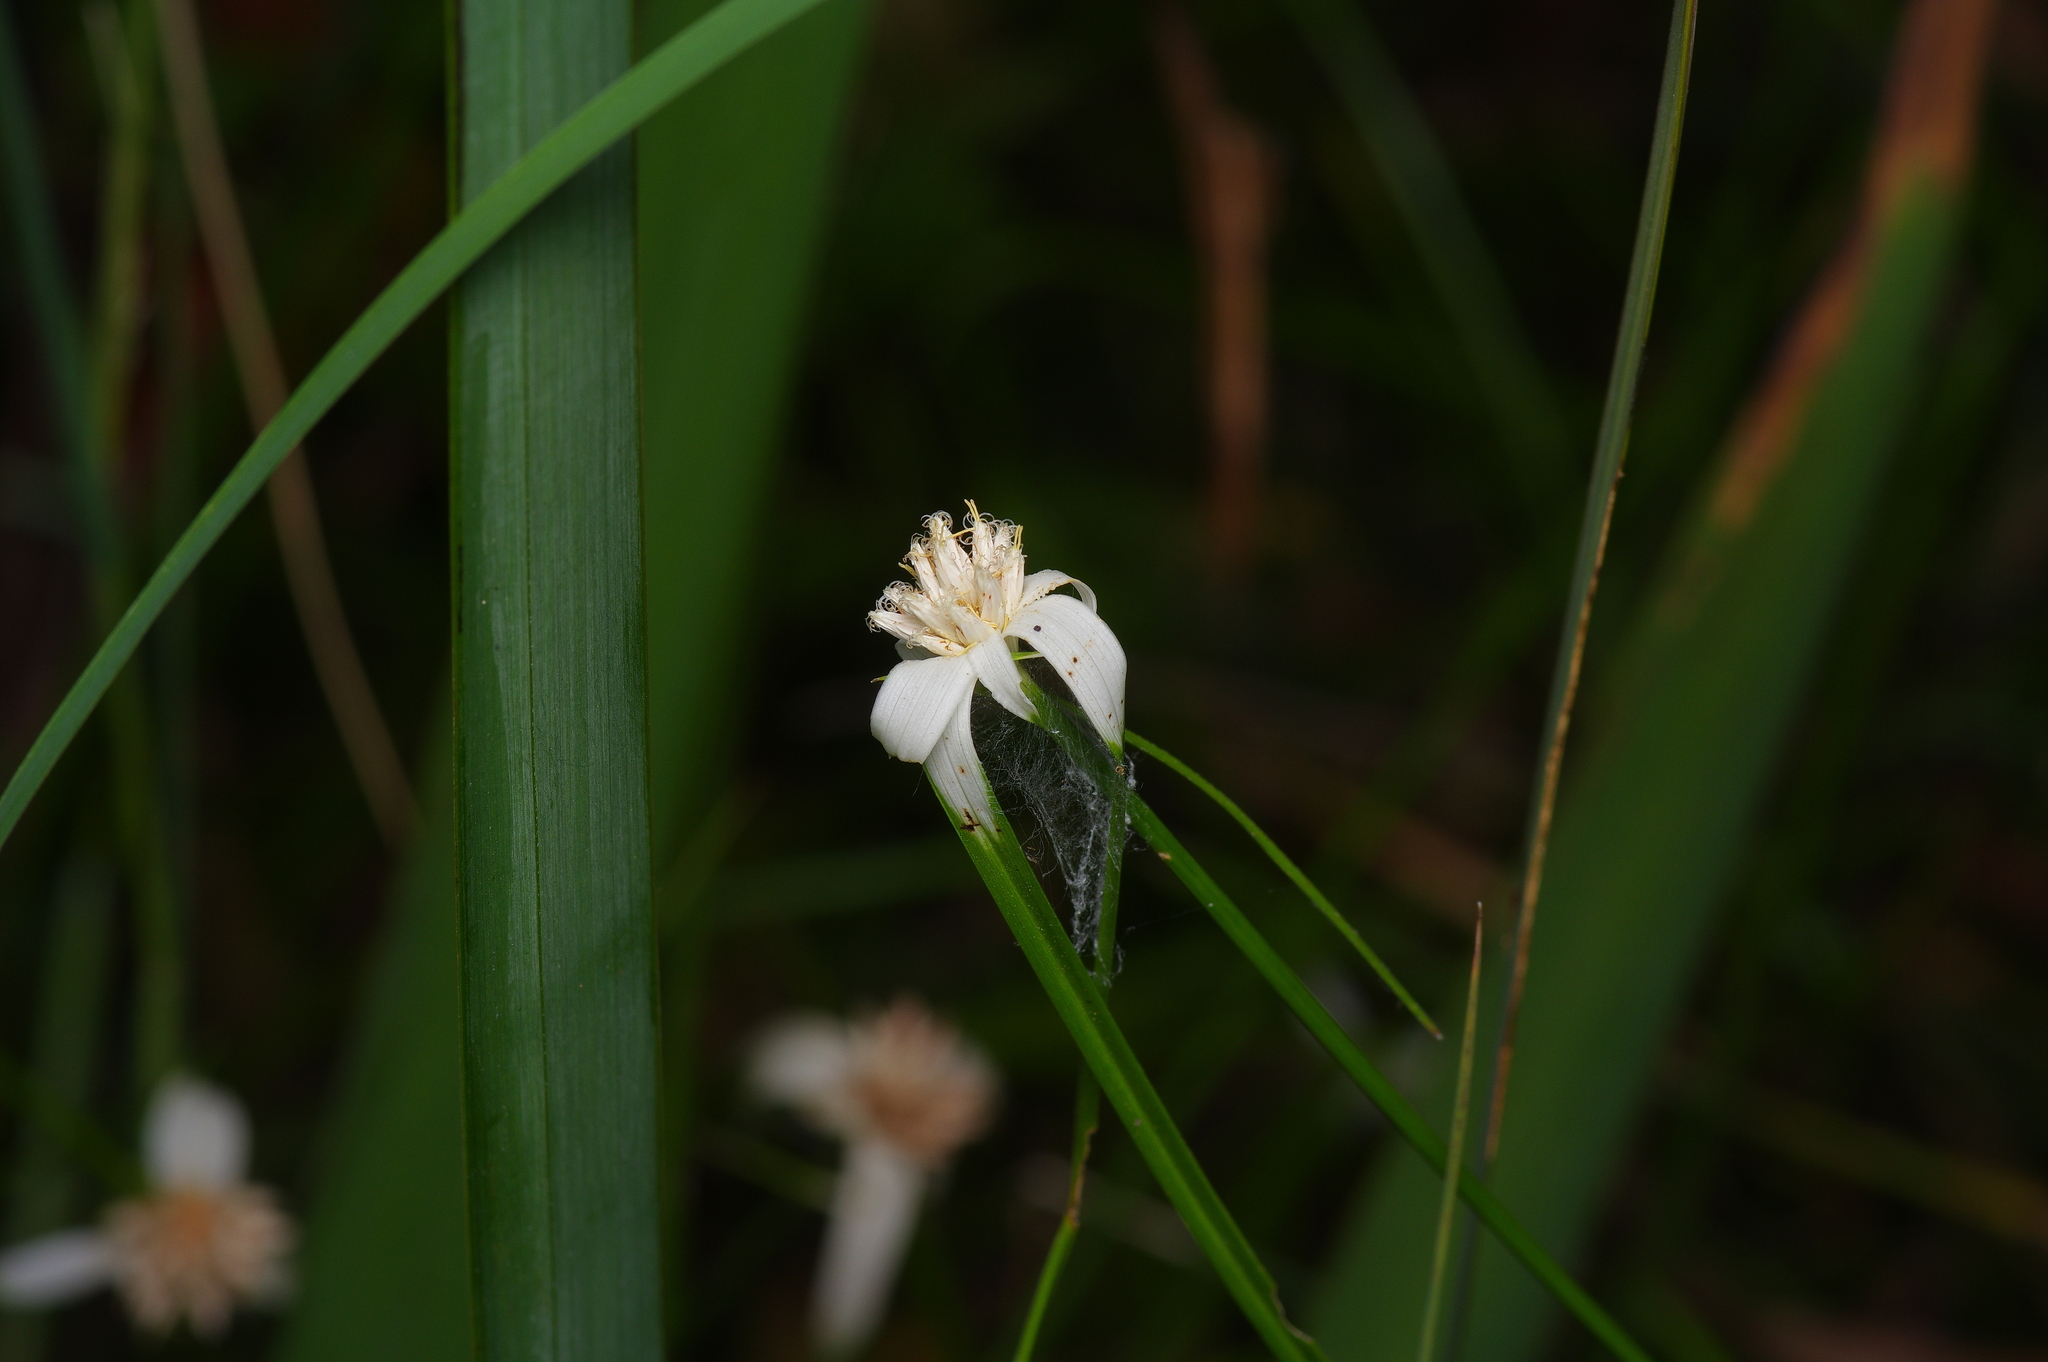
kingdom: Plantae
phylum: Tracheophyta
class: Liliopsida
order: Poales
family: Cyperaceae
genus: Rhynchospora
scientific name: Rhynchospora colorata
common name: Star sedge
